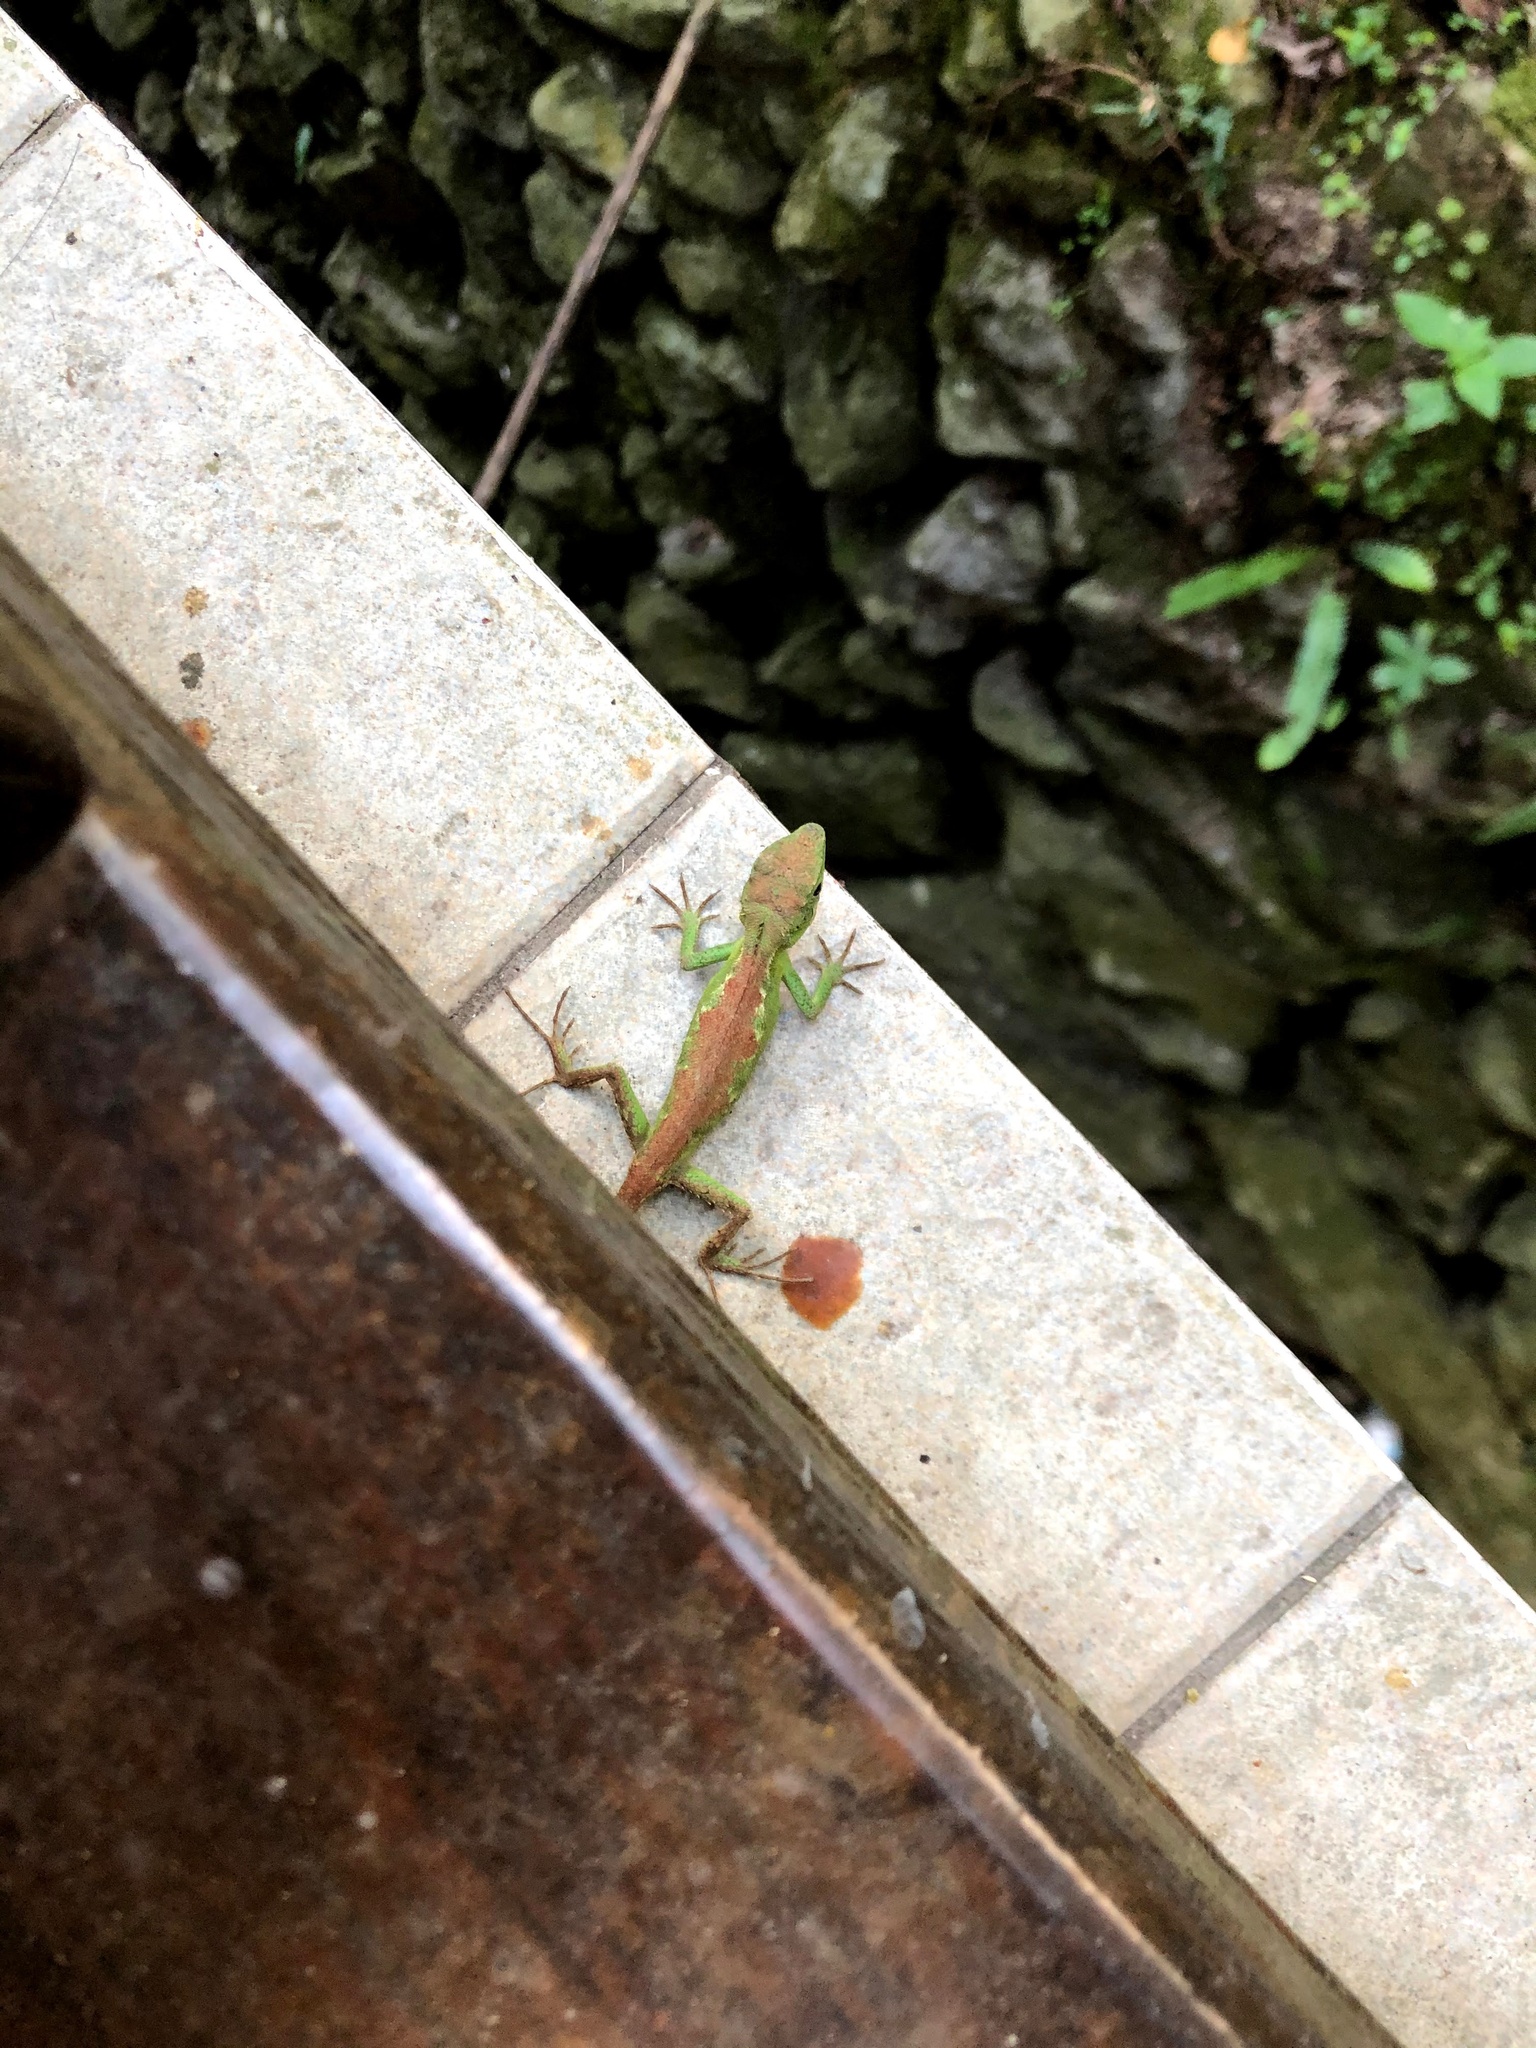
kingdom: Animalia
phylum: Chordata
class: Squamata
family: Agamidae
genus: Diploderma
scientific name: Diploderma brevipes
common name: Short-legged japalure
